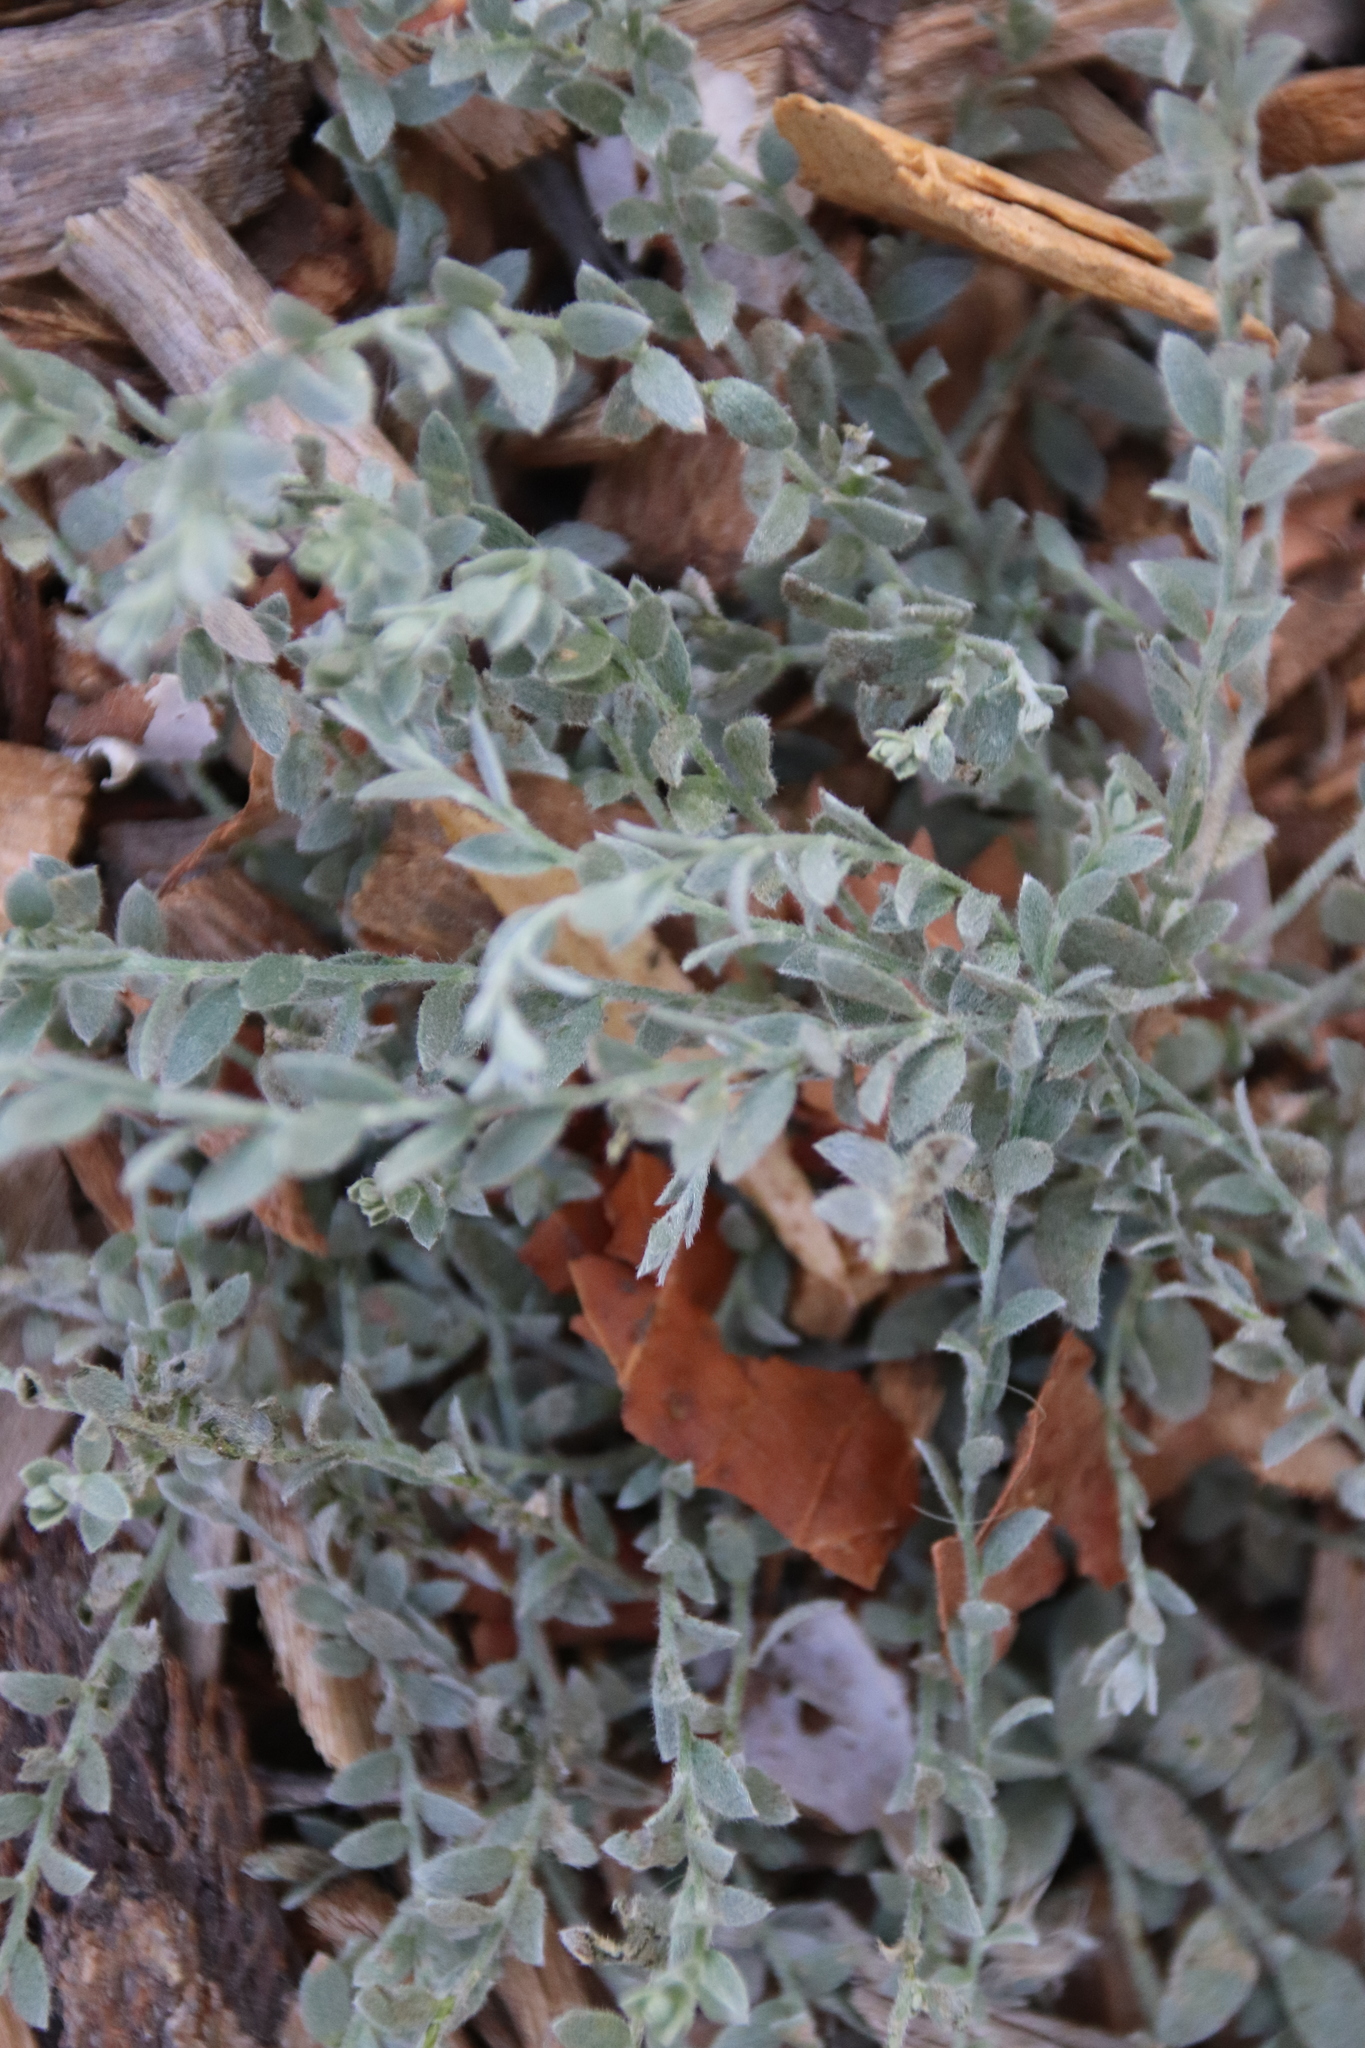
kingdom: Plantae
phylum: Tracheophyta
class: Magnoliopsida
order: Solanales
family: Convolvulaceae
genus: Cressa
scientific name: Cressa truxillensis
